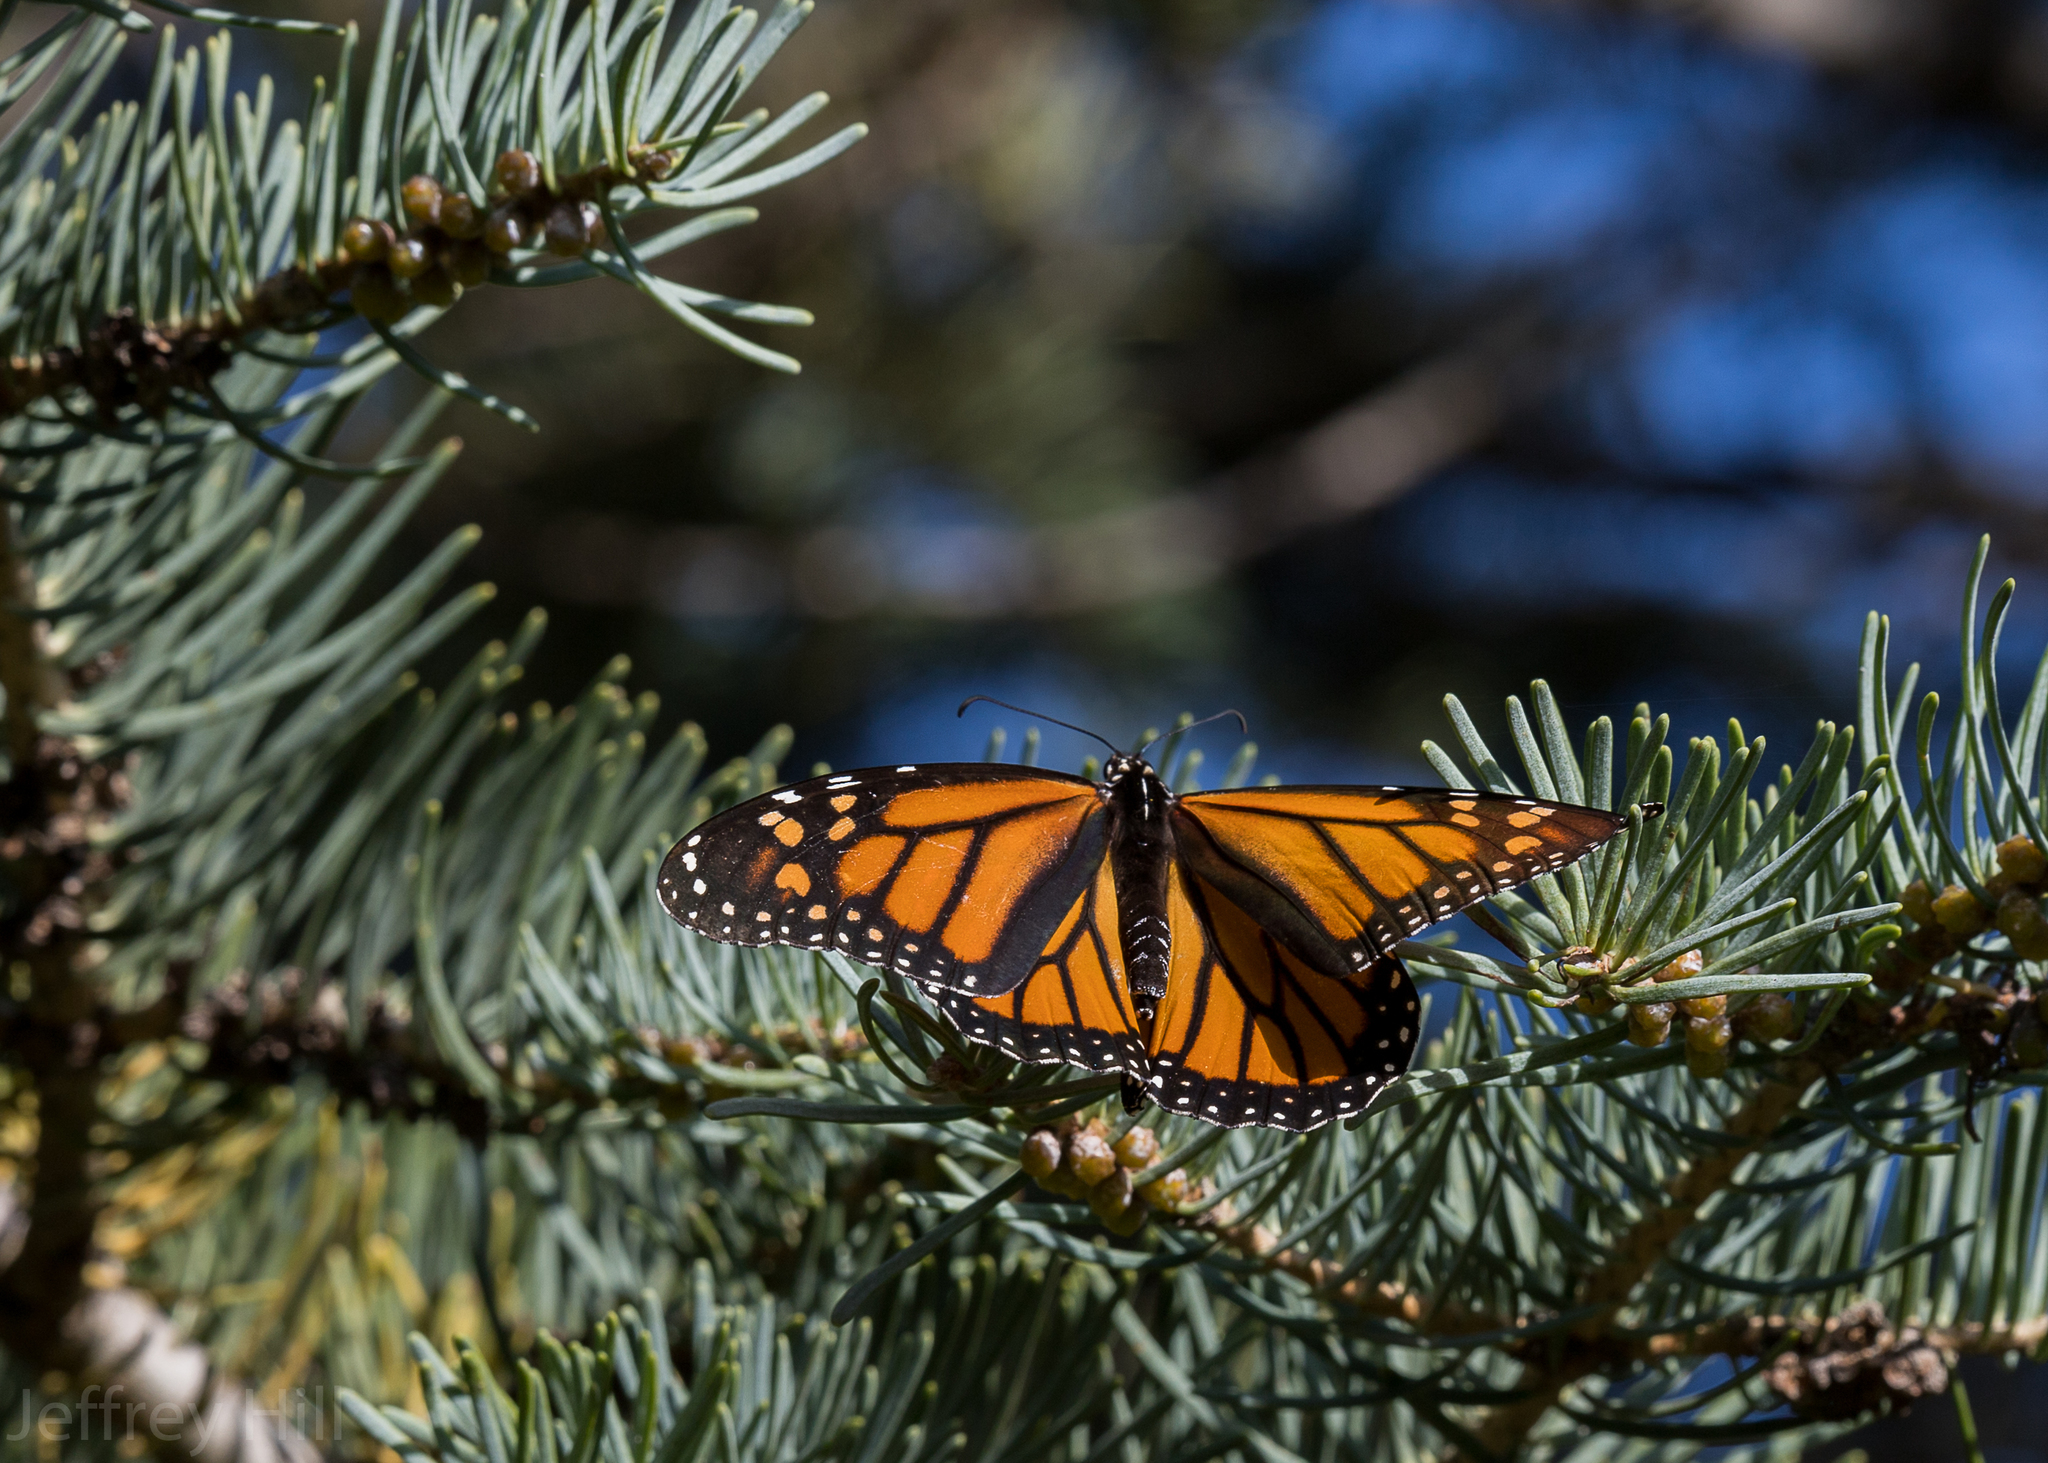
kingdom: Animalia
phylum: Arthropoda
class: Insecta
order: Lepidoptera
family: Nymphalidae
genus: Danaus
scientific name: Danaus plexippus
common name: Monarch
